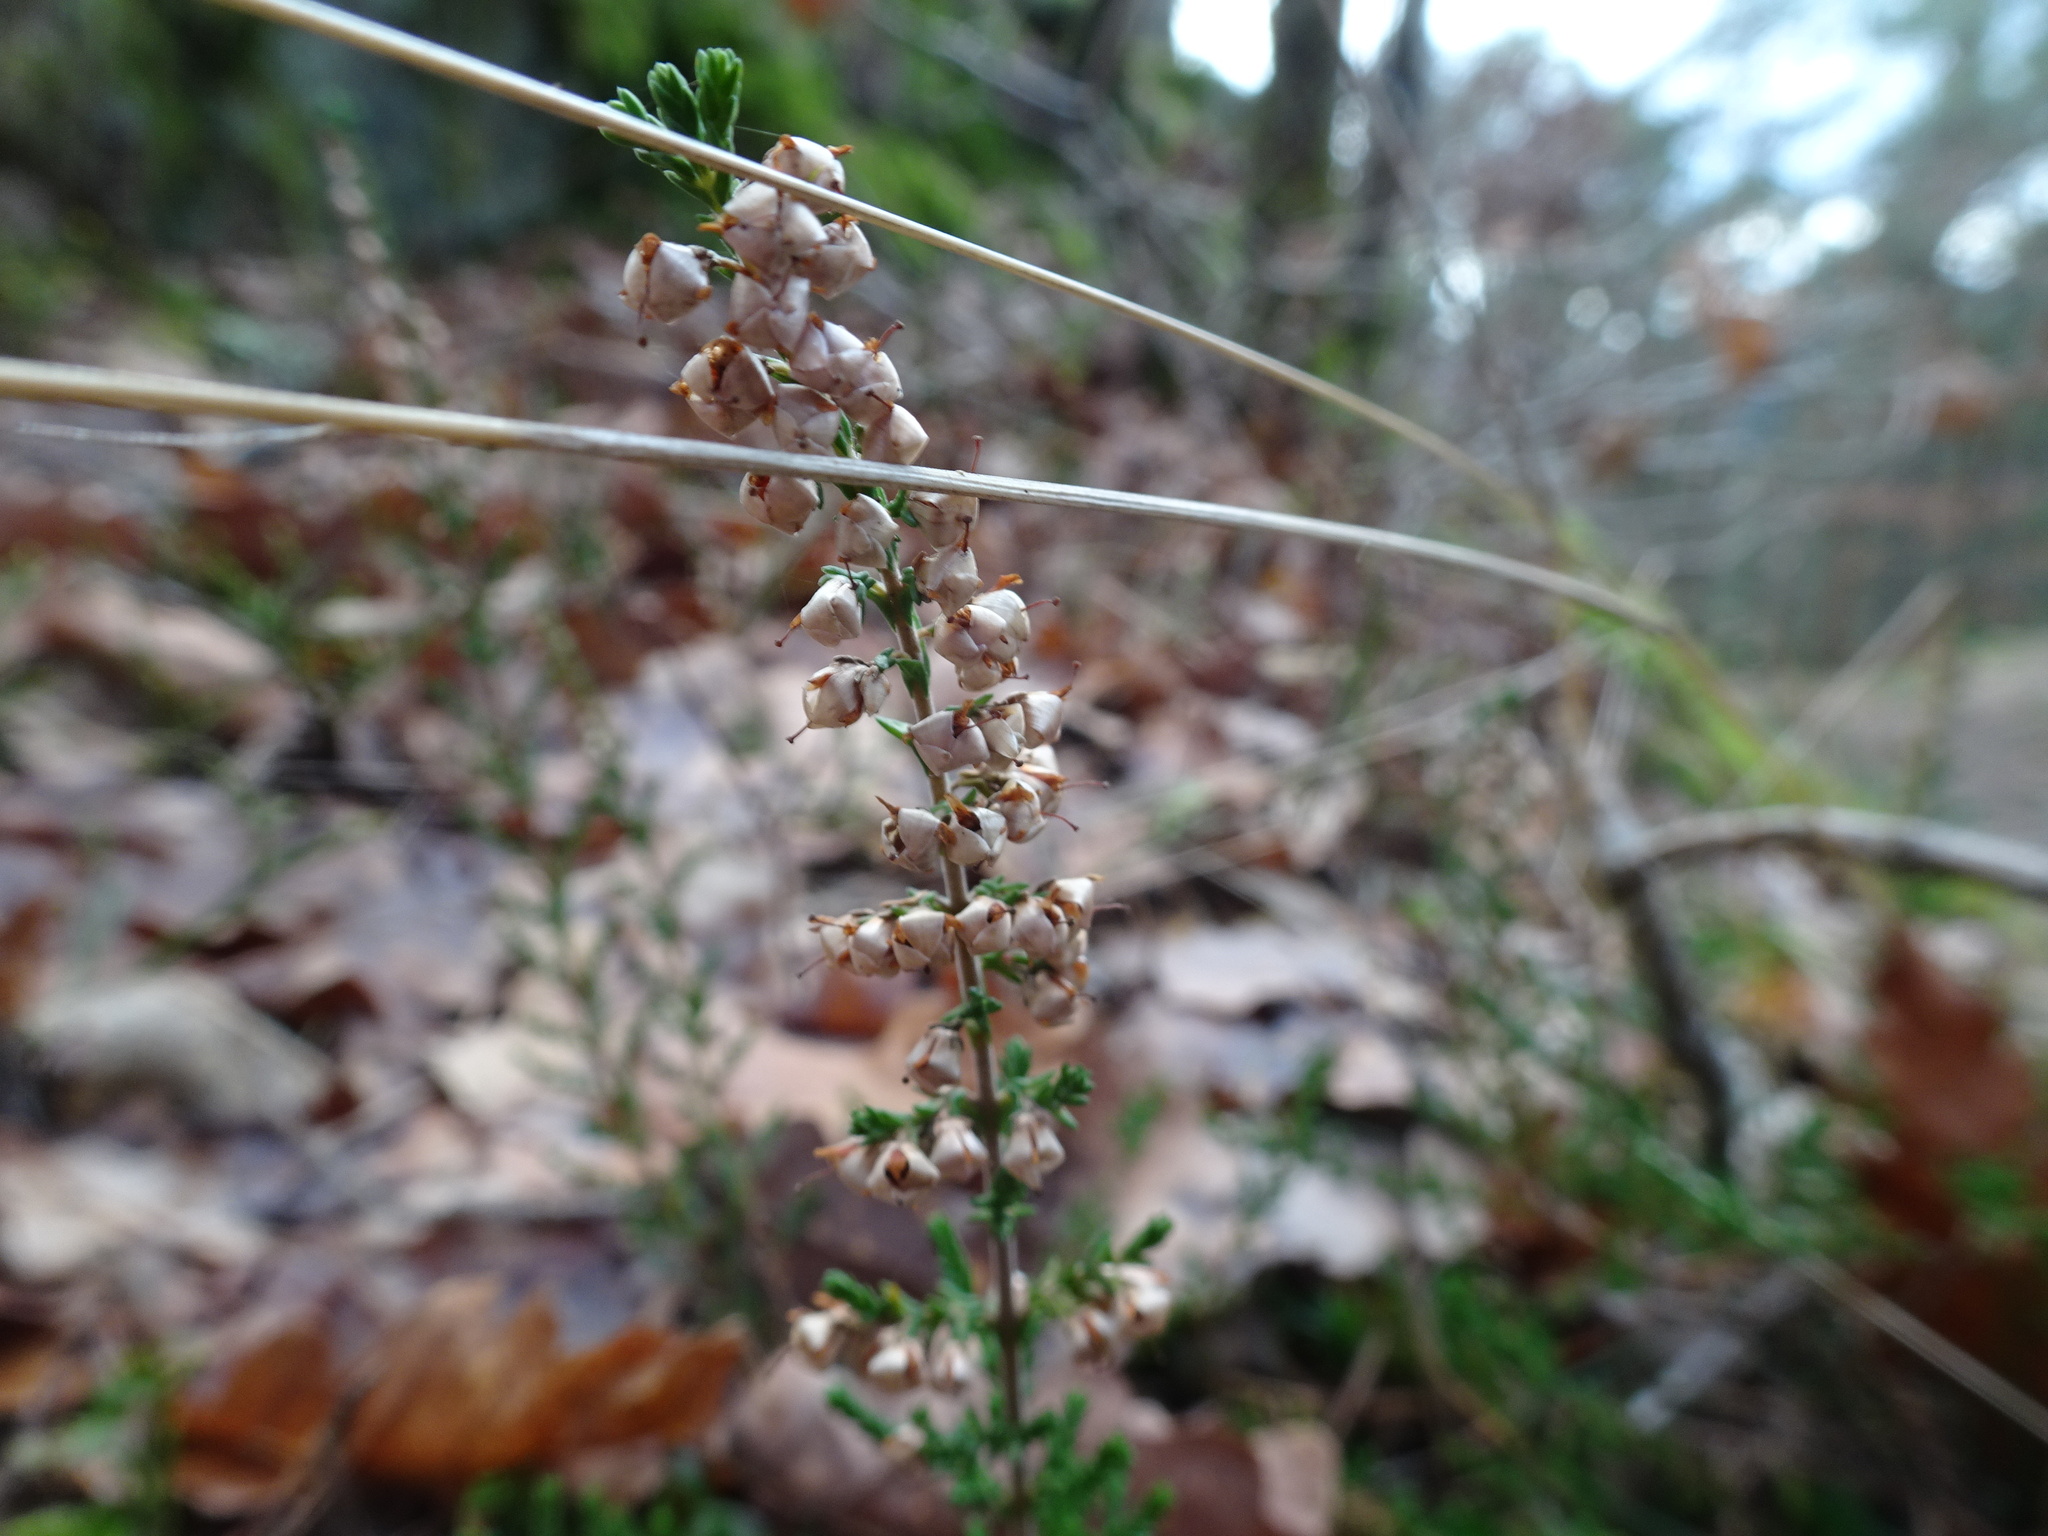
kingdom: Plantae
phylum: Tracheophyta
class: Magnoliopsida
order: Ericales
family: Ericaceae
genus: Calluna
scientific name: Calluna vulgaris
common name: Heather
